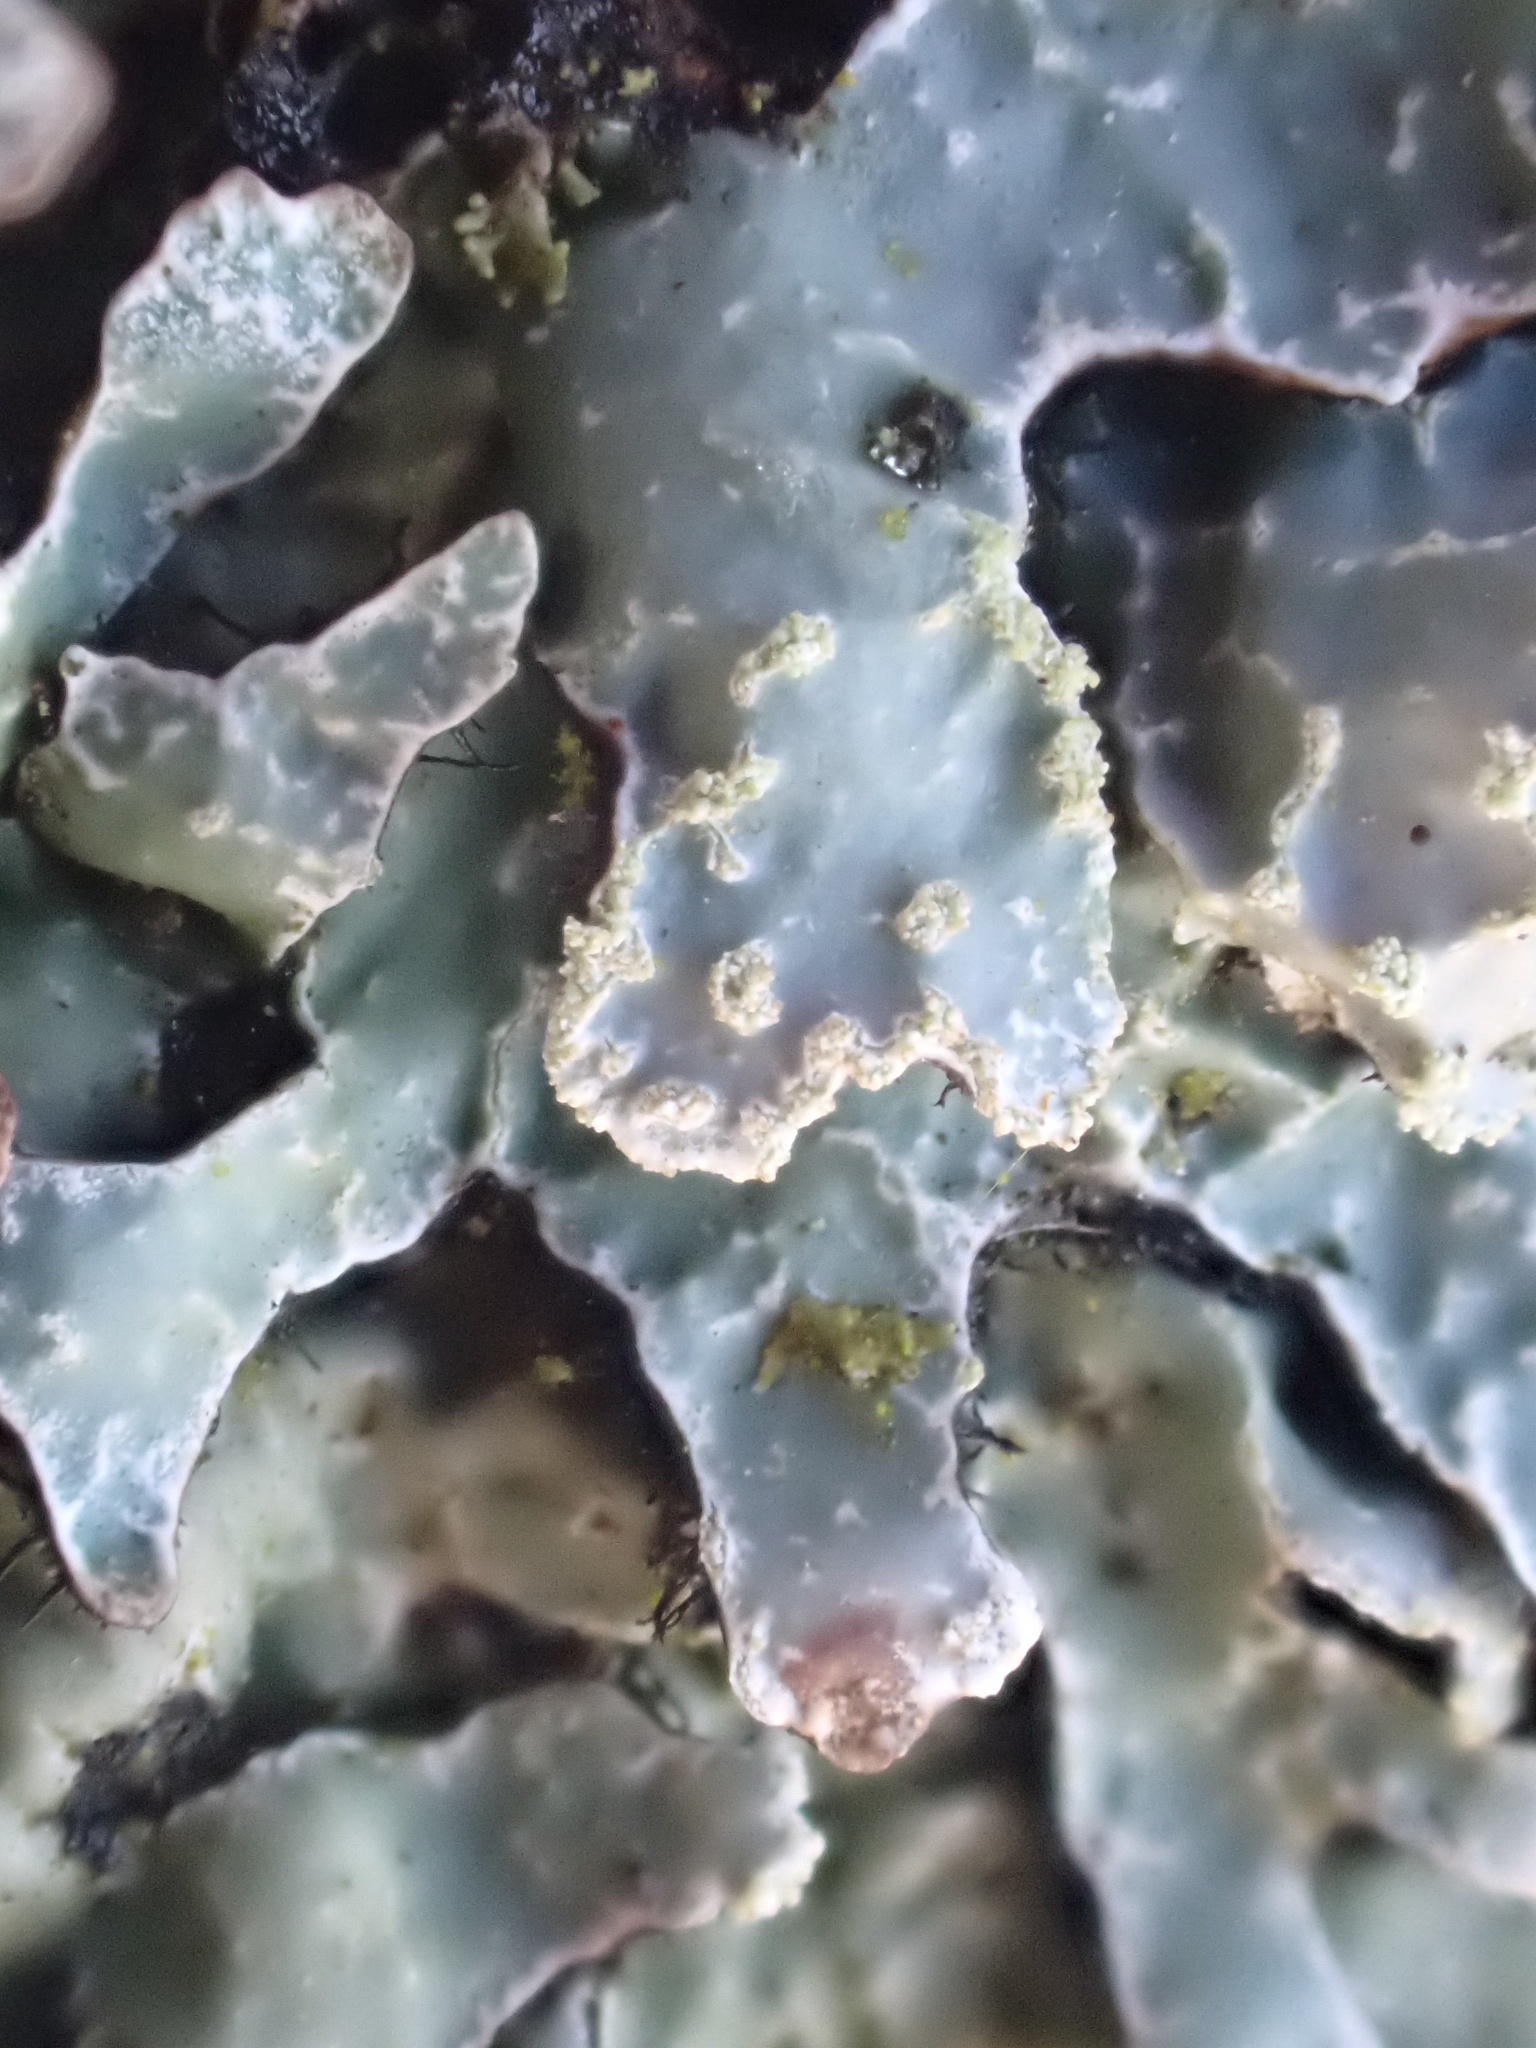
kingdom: Fungi
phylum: Ascomycota
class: Lecanoromycetes
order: Lecanorales
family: Parmeliaceae
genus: Parmelia
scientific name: Parmelia sulcata
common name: Netted shield lichen
